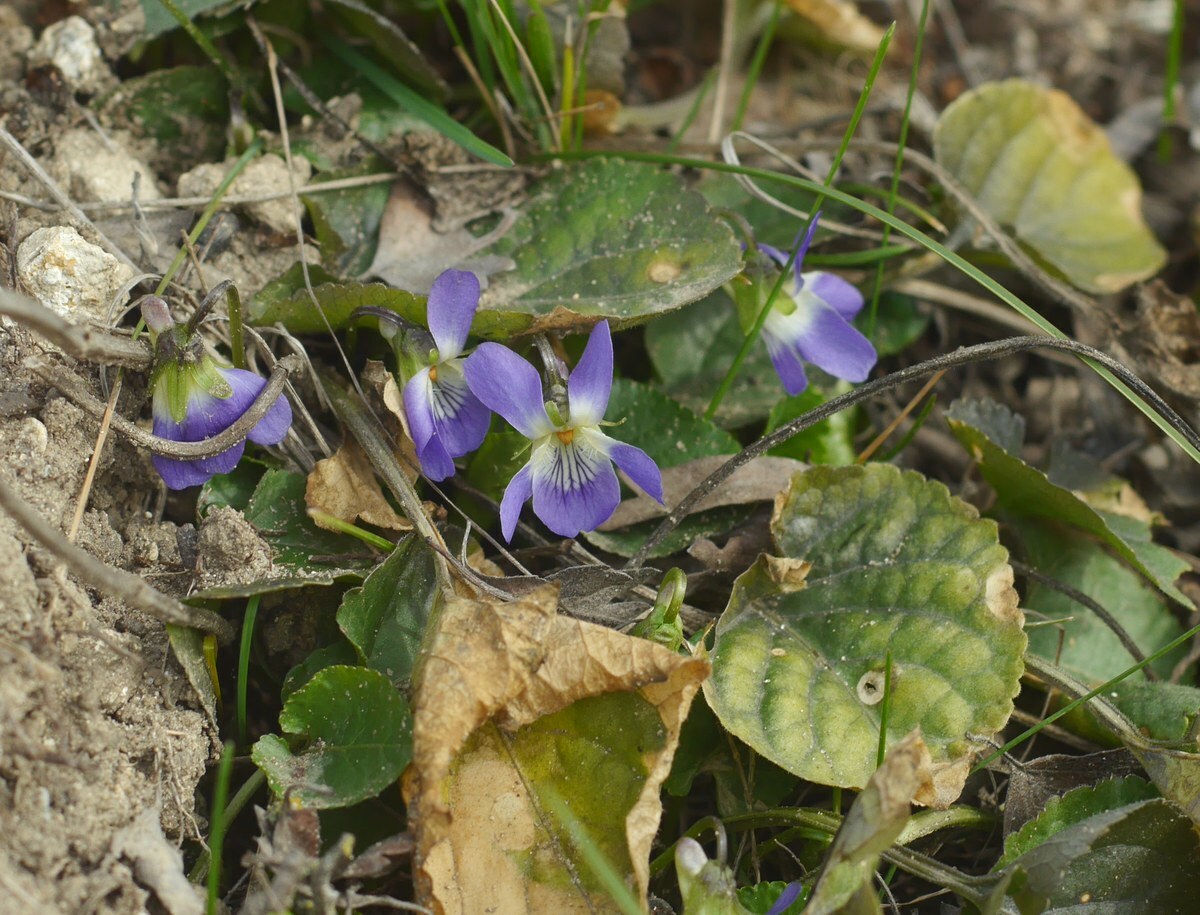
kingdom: Plantae
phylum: Tracheophyta
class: Magnoliopsida
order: Malpighiales
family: Violaceae
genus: Viola
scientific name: Viola suavis
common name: Russian violet
